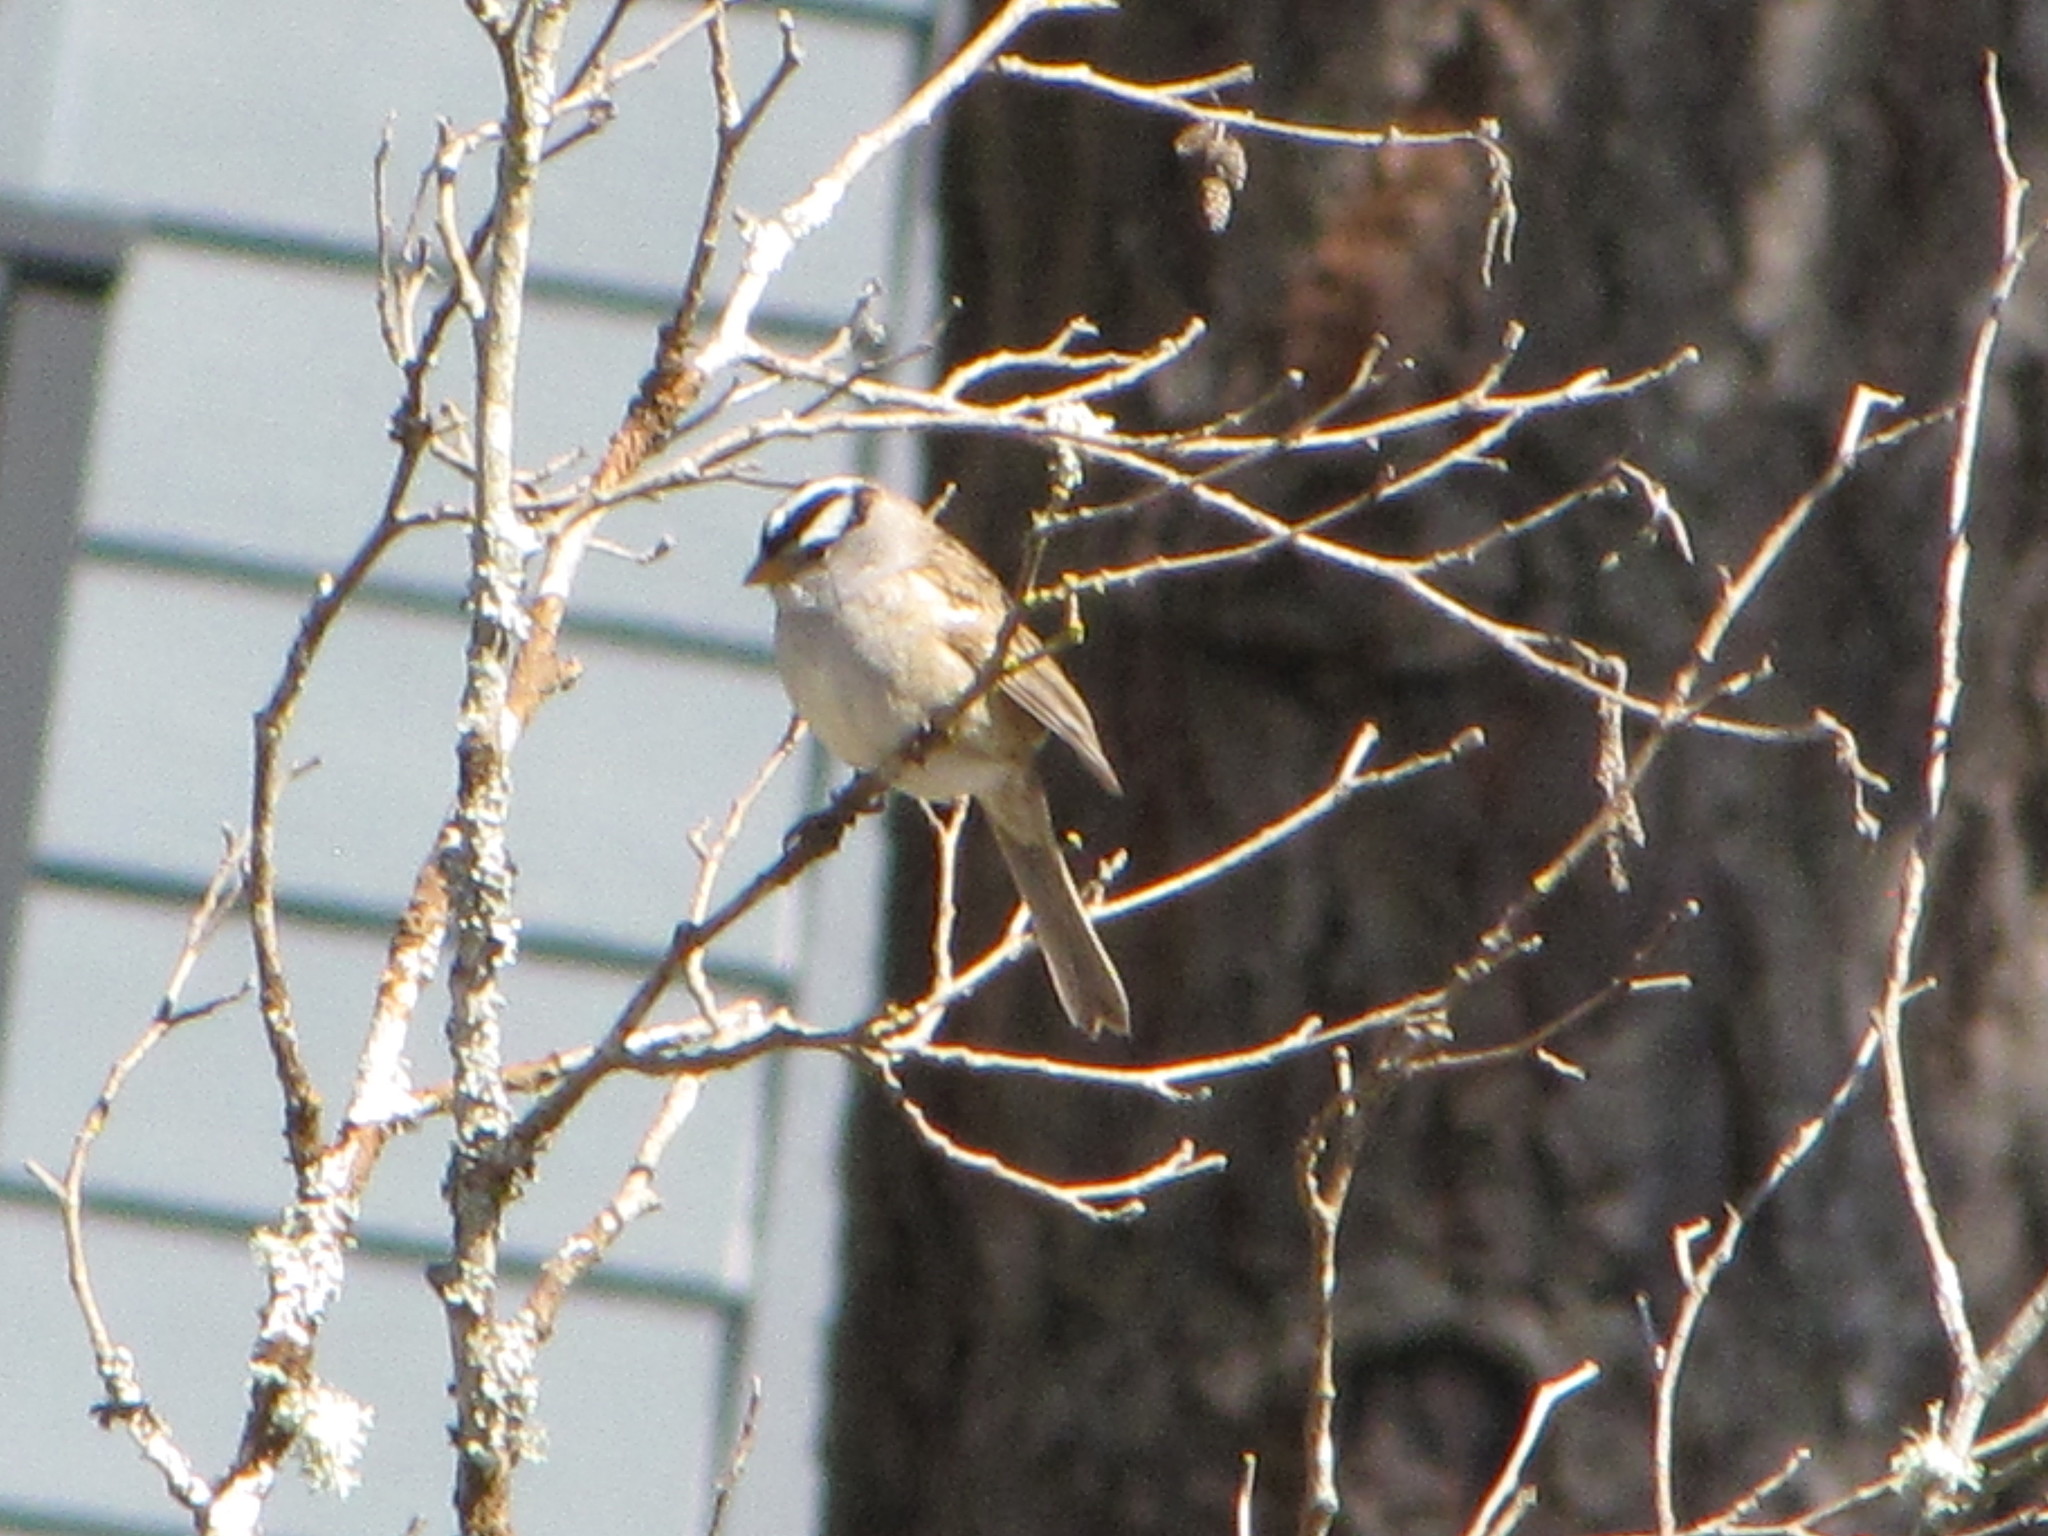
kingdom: Animalia
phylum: Chordata
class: Aves
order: Passeriformes
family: Passerellidae
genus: Zonotrichia
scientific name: Zonotrichia leucophrys
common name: White-crowned sparrow
